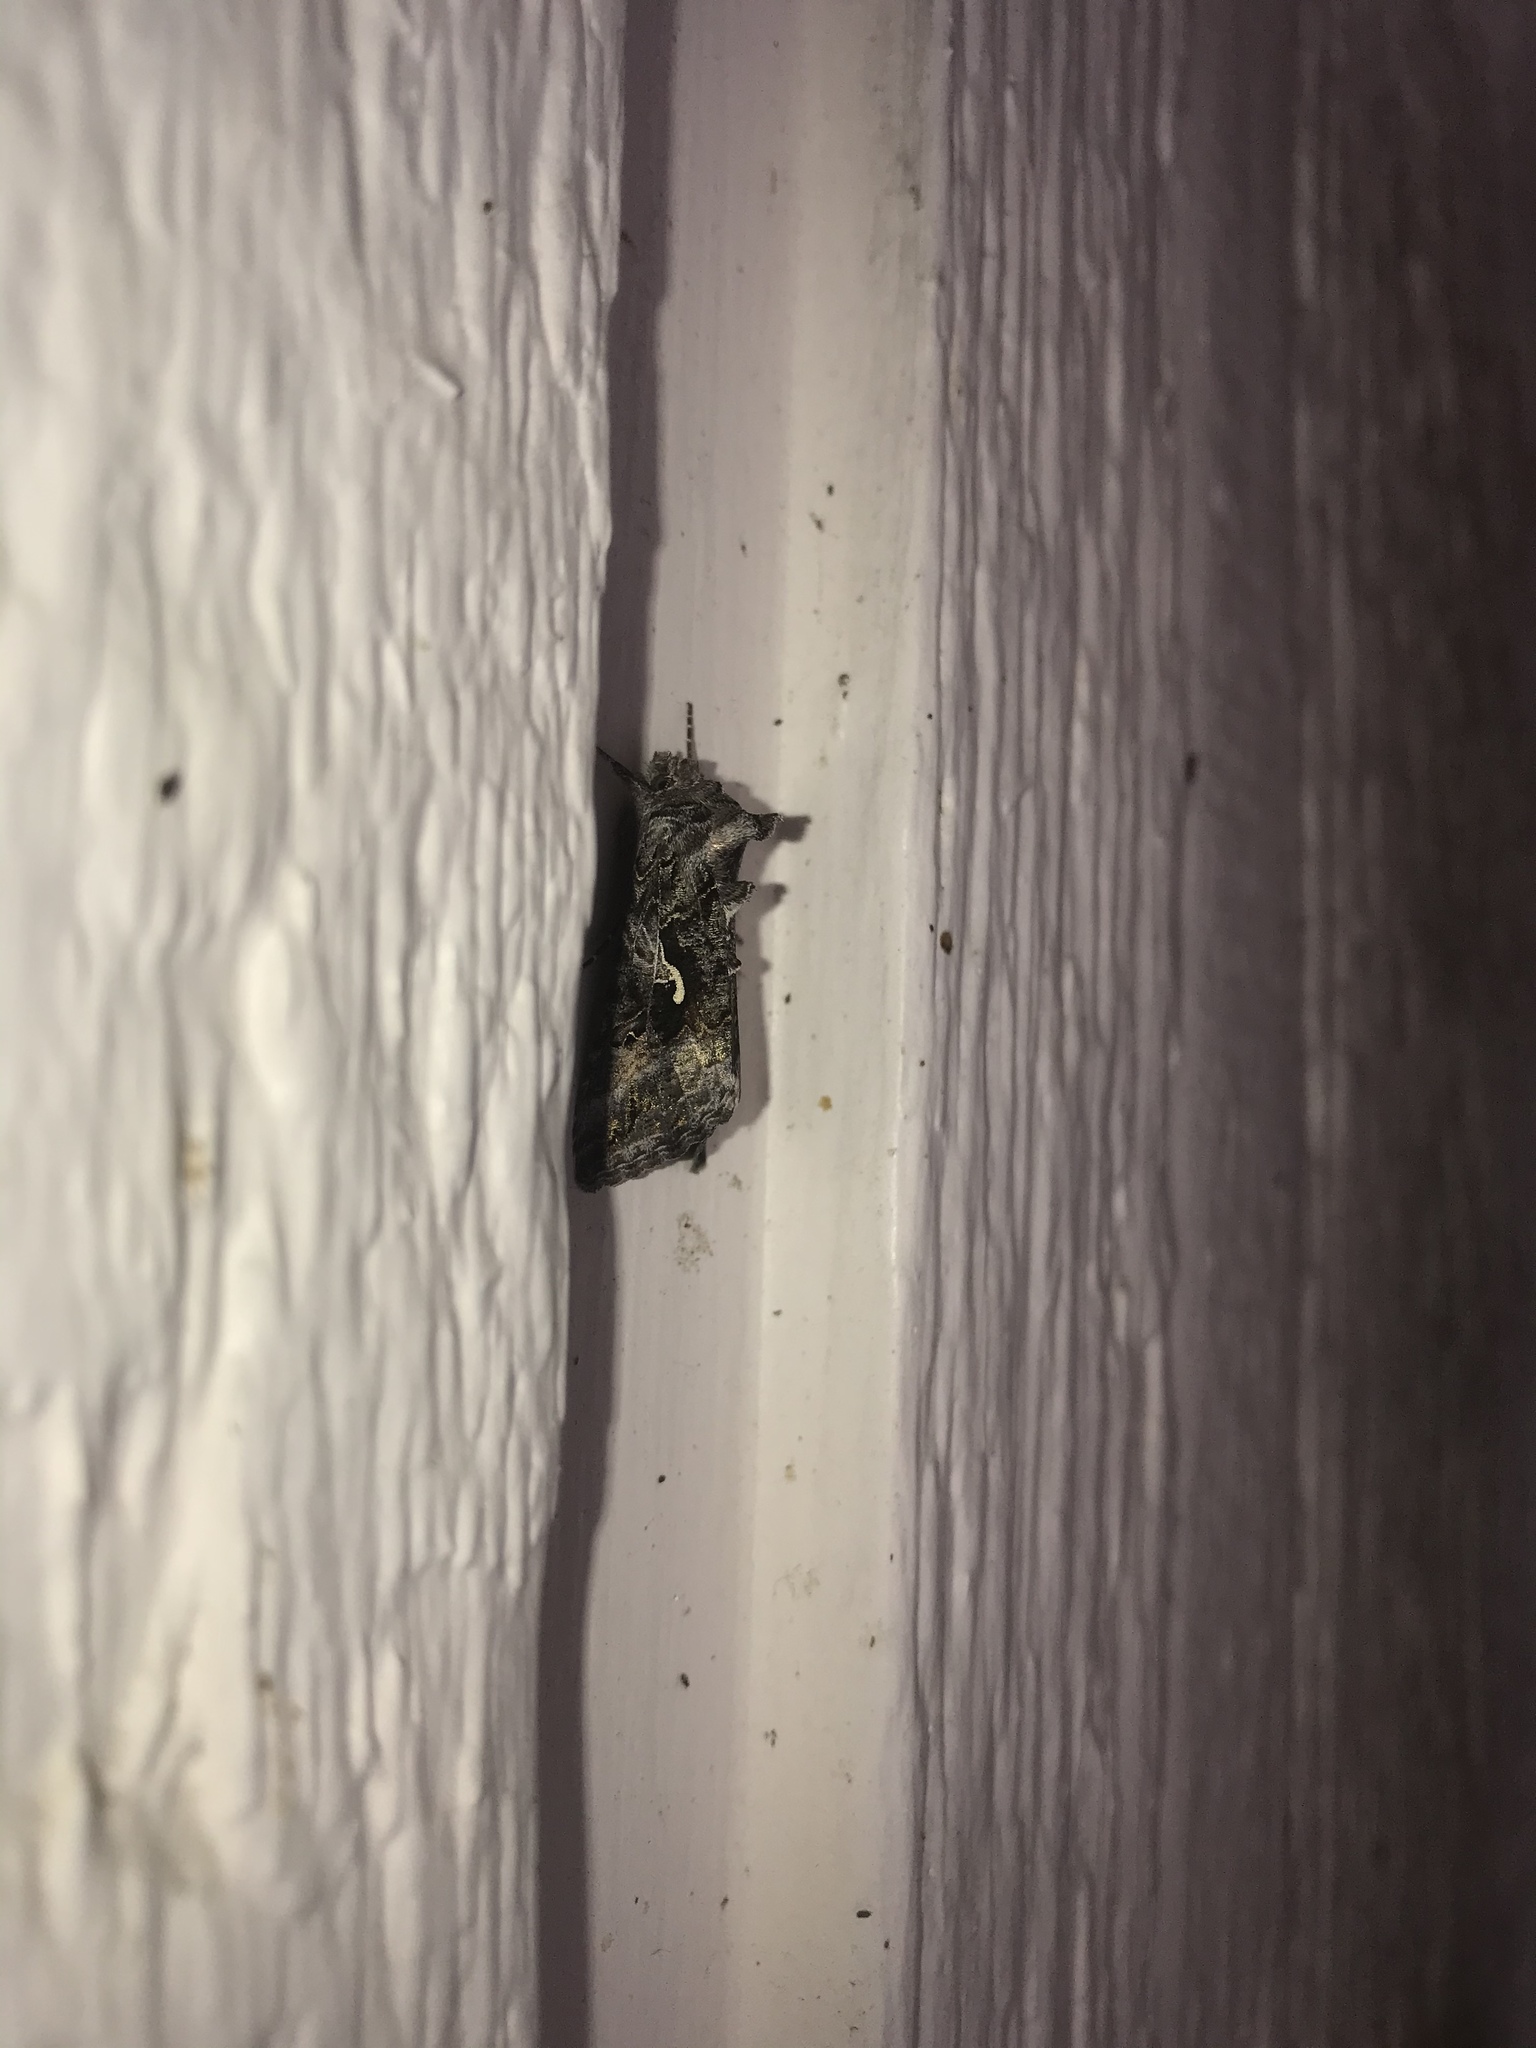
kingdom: Animalia
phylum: Arthropoda
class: Insecta
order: Lepidoptera
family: Noctuidae
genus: Autographa
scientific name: Autographa californica
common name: Alfalfa looper
